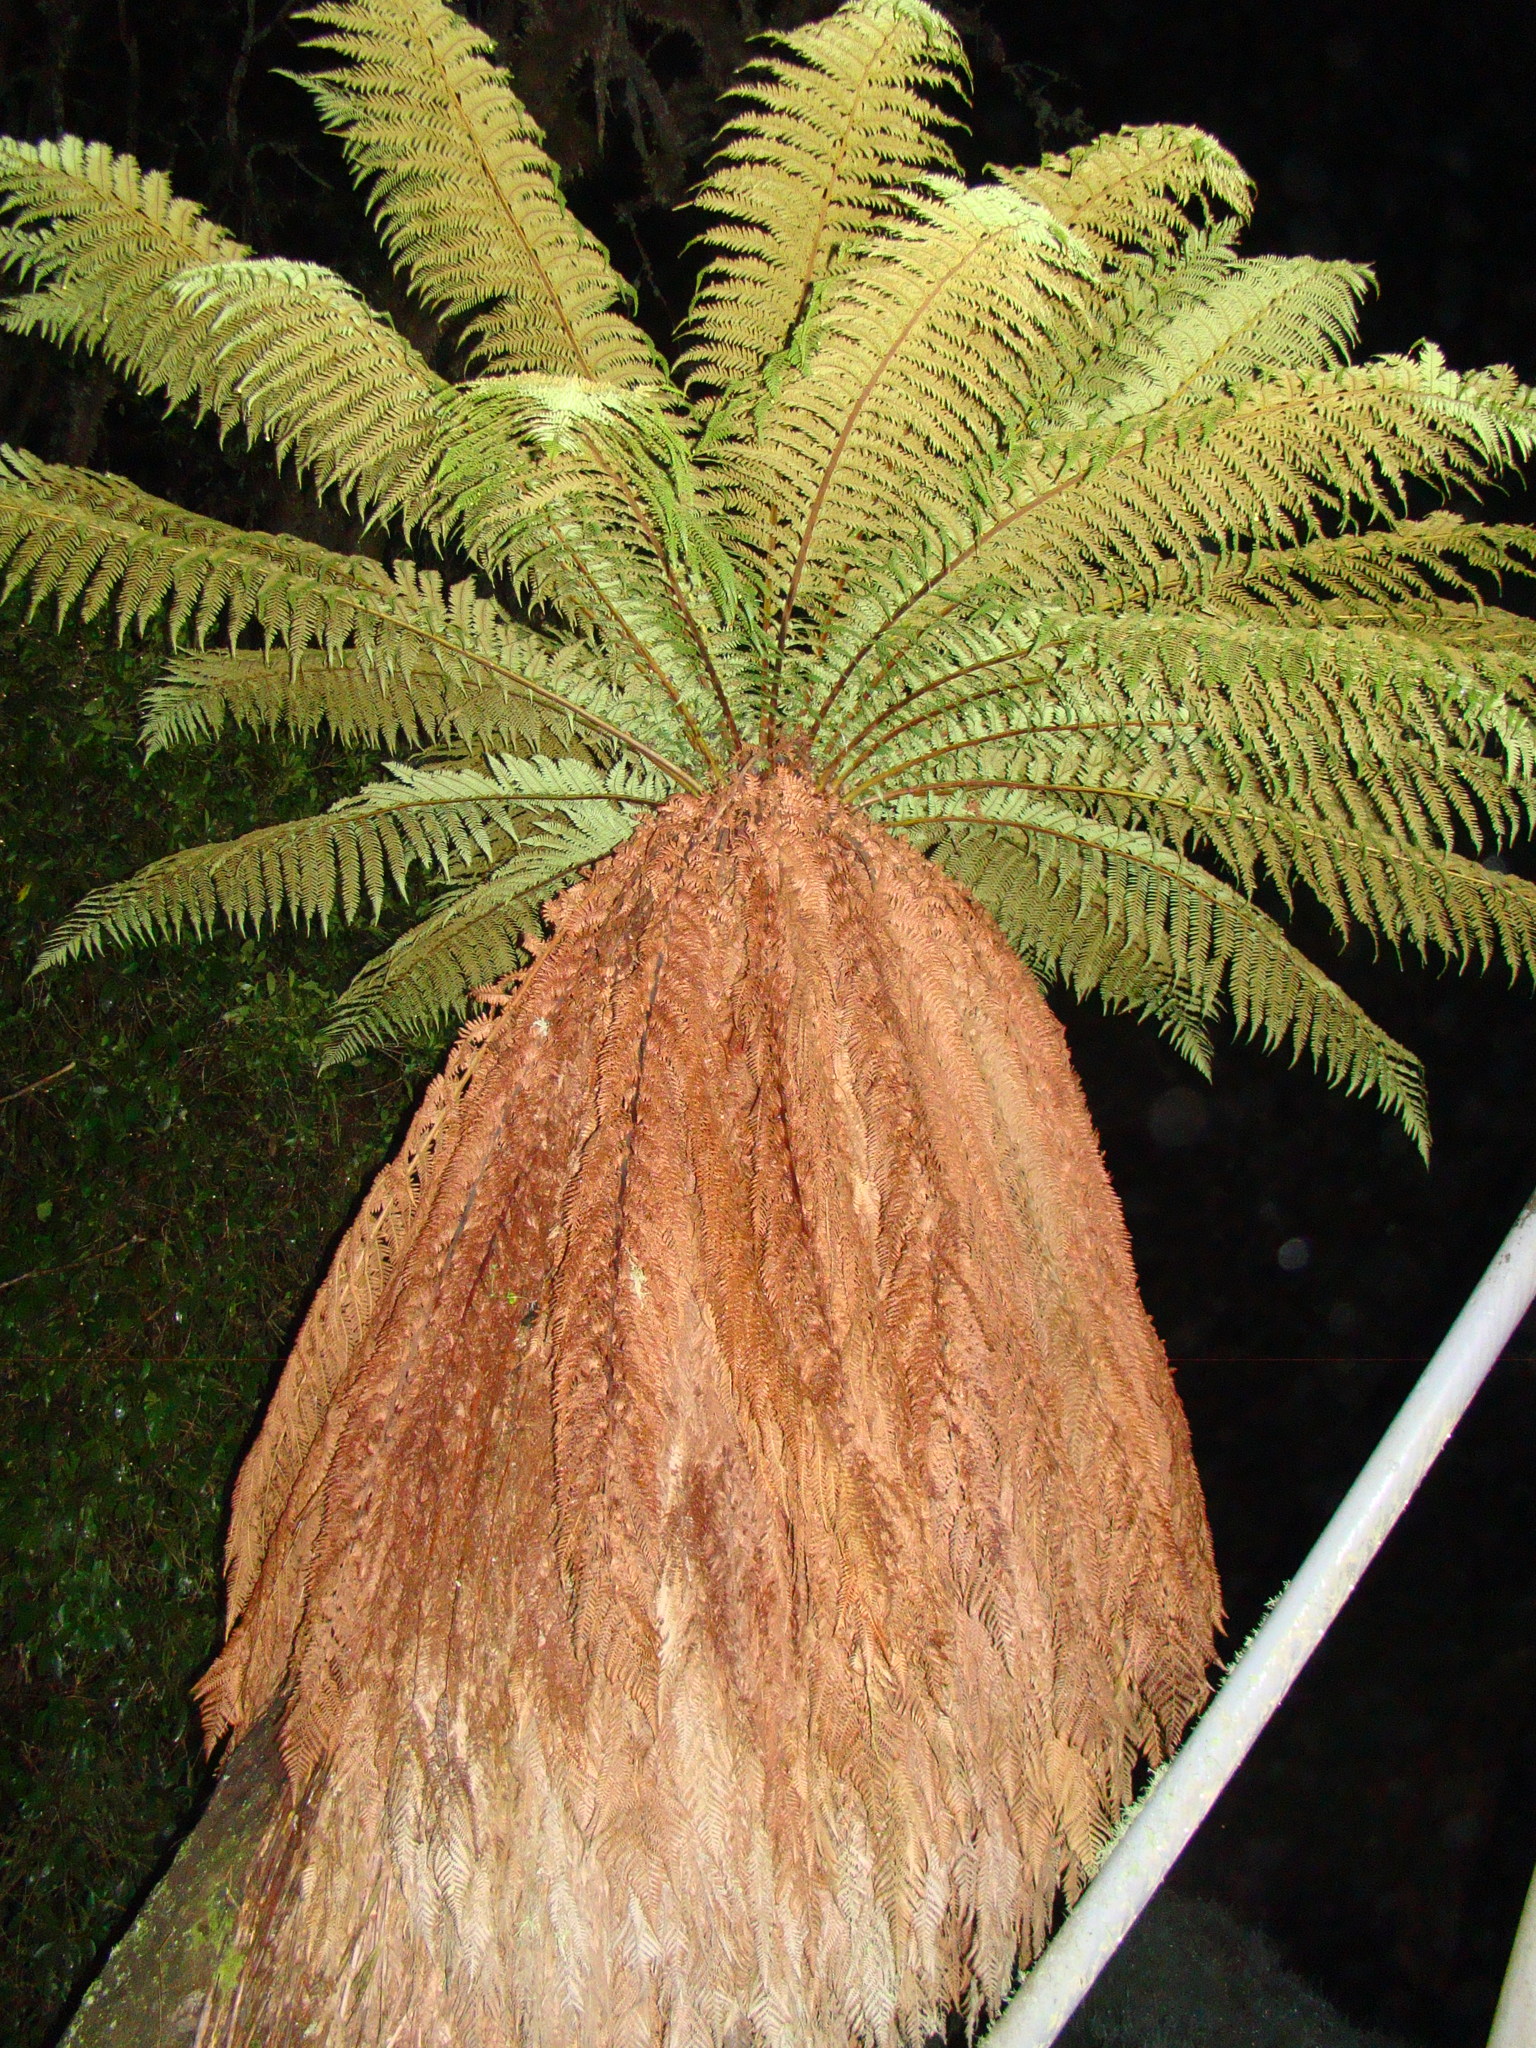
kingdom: Plantae
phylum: Tracheophyta
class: Polypodiopsida
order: Cyatheales
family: Dicksoniaceae
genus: Dicksonia
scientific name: Dicksonia fibrosa
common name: Golden tree fern
